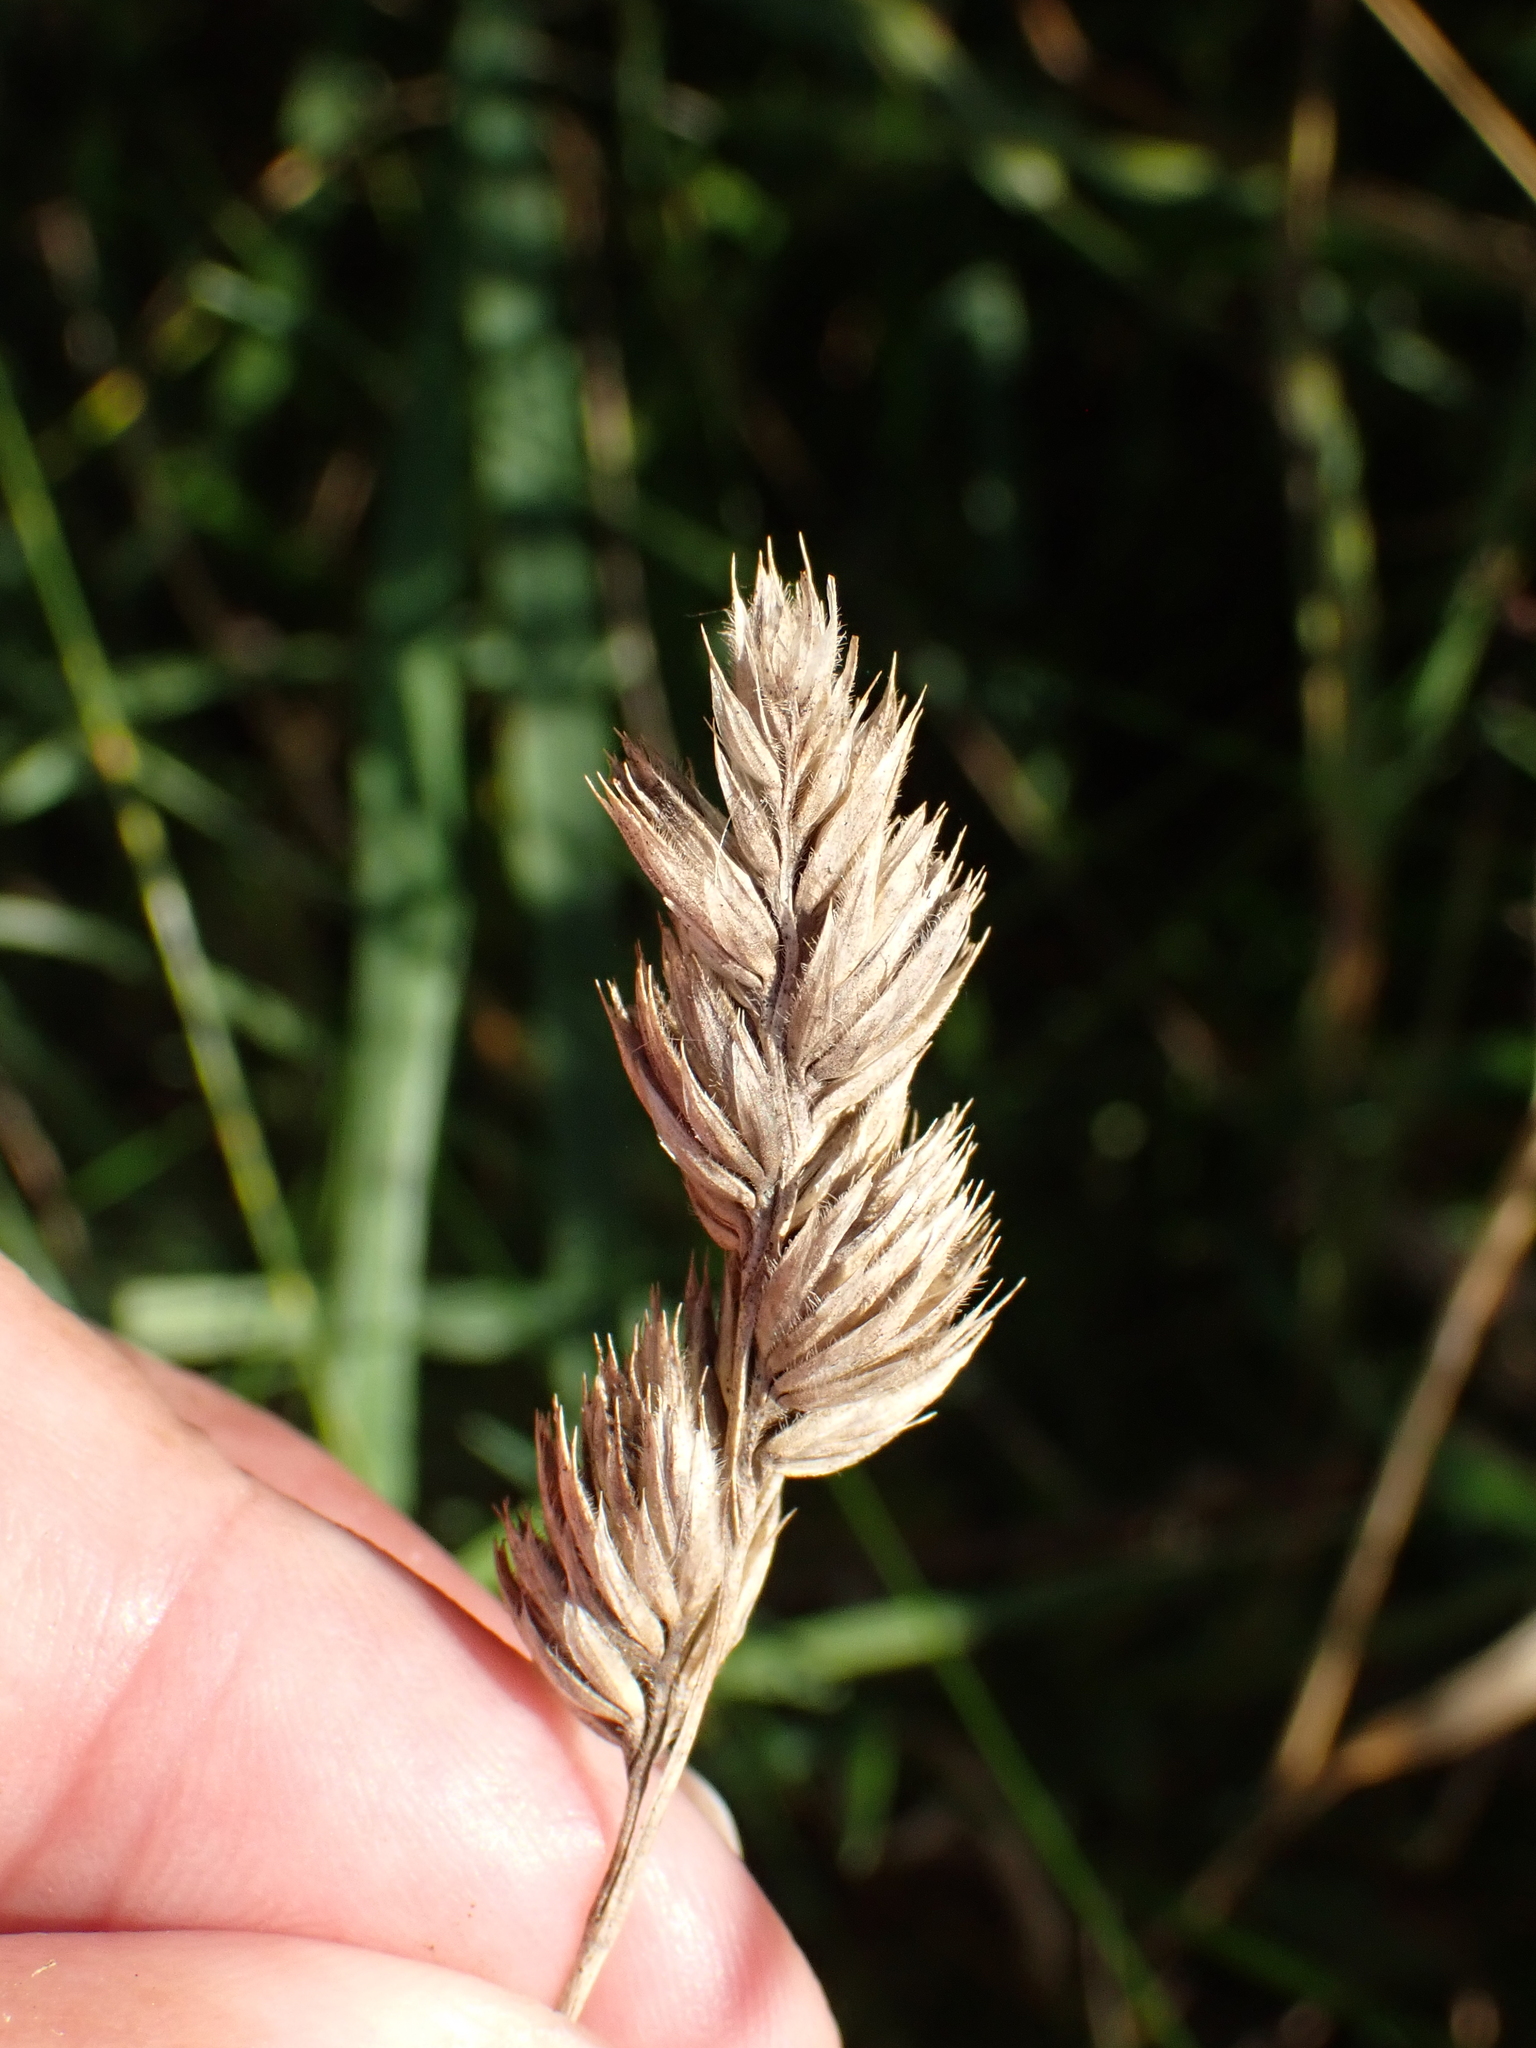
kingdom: Plantae
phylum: Tracheophyta
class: Liliopsida
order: Poales
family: Poaceae
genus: Dactylis
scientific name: Dactylis glomerata
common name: Orchardgrass
